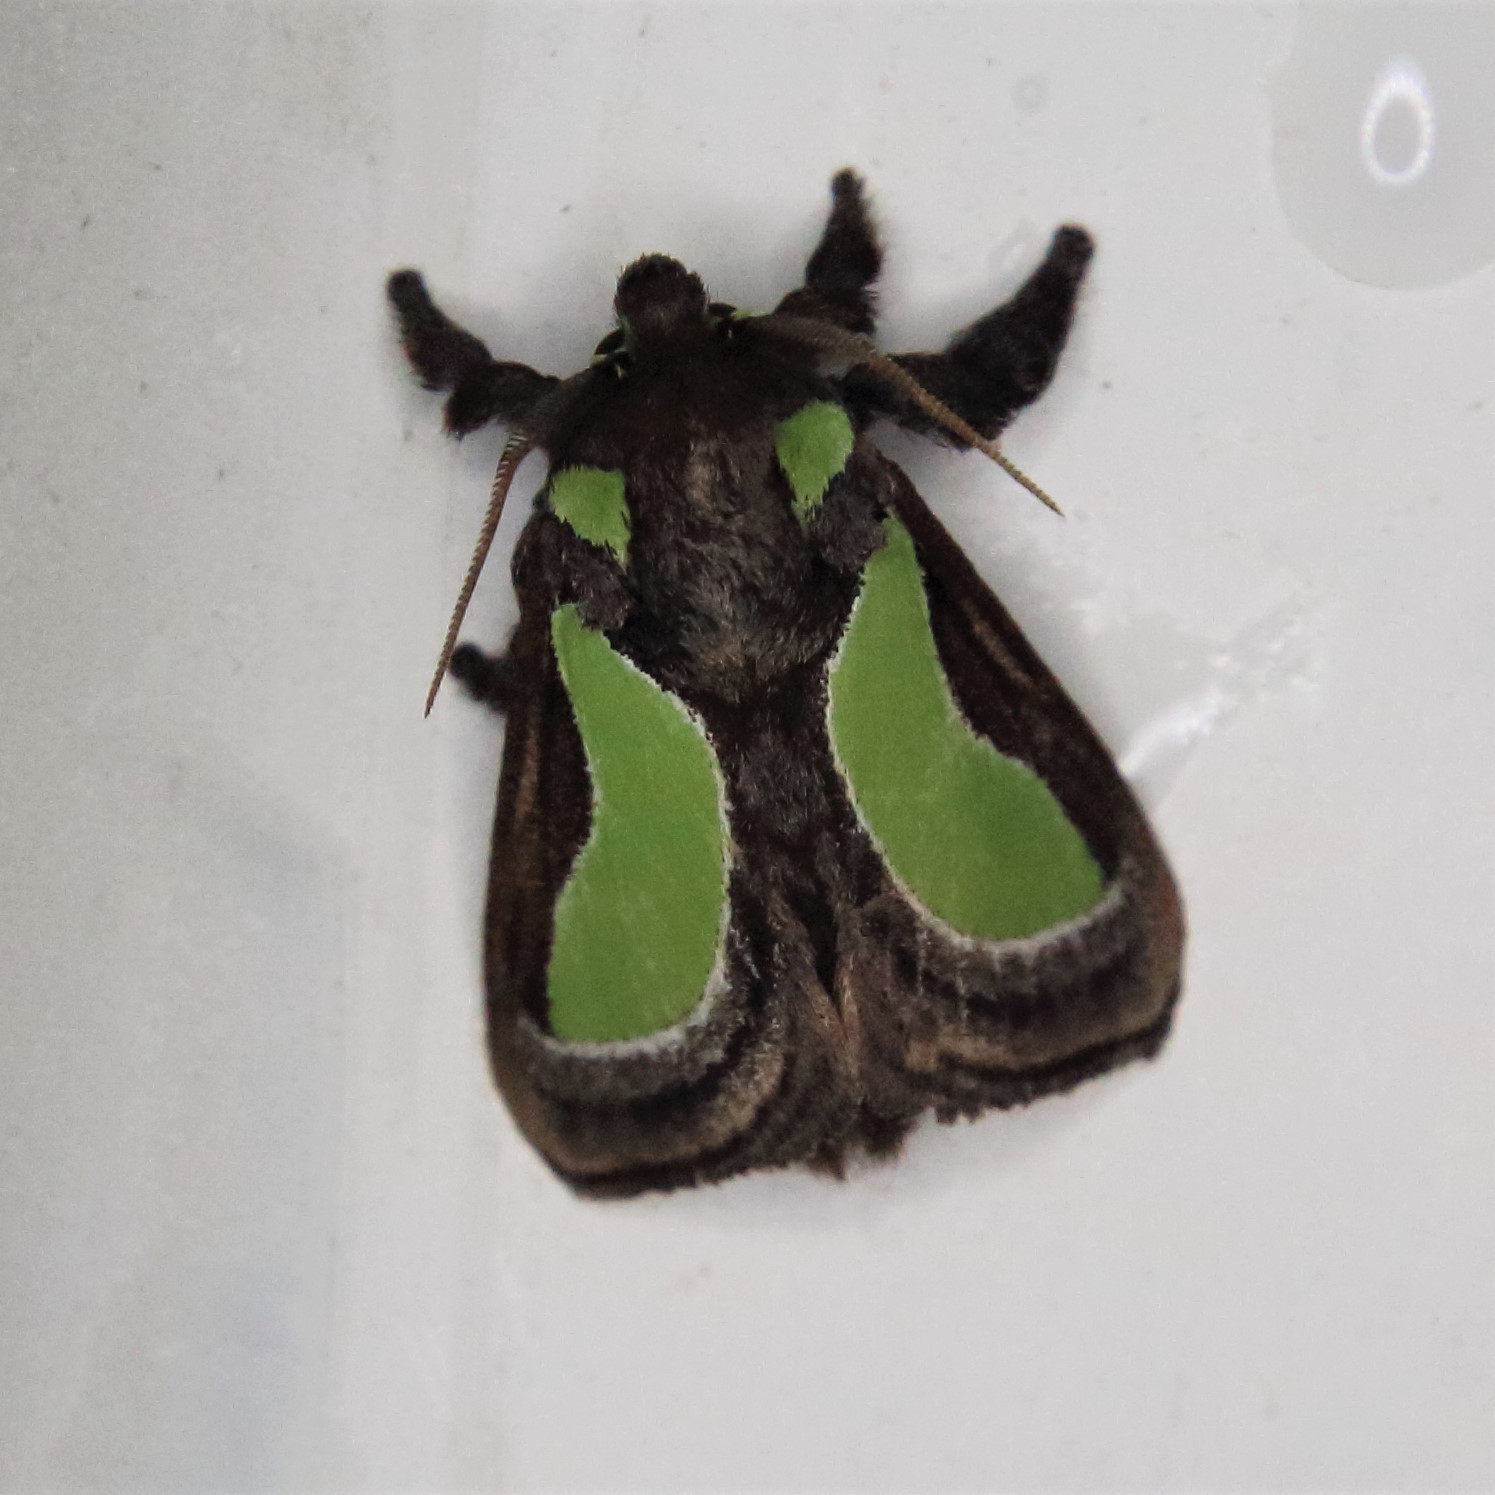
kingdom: Animalia
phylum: Arthropoda
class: Insecta
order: Lepidoptera
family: Limacodidae
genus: Parasa
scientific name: Parasa darma
